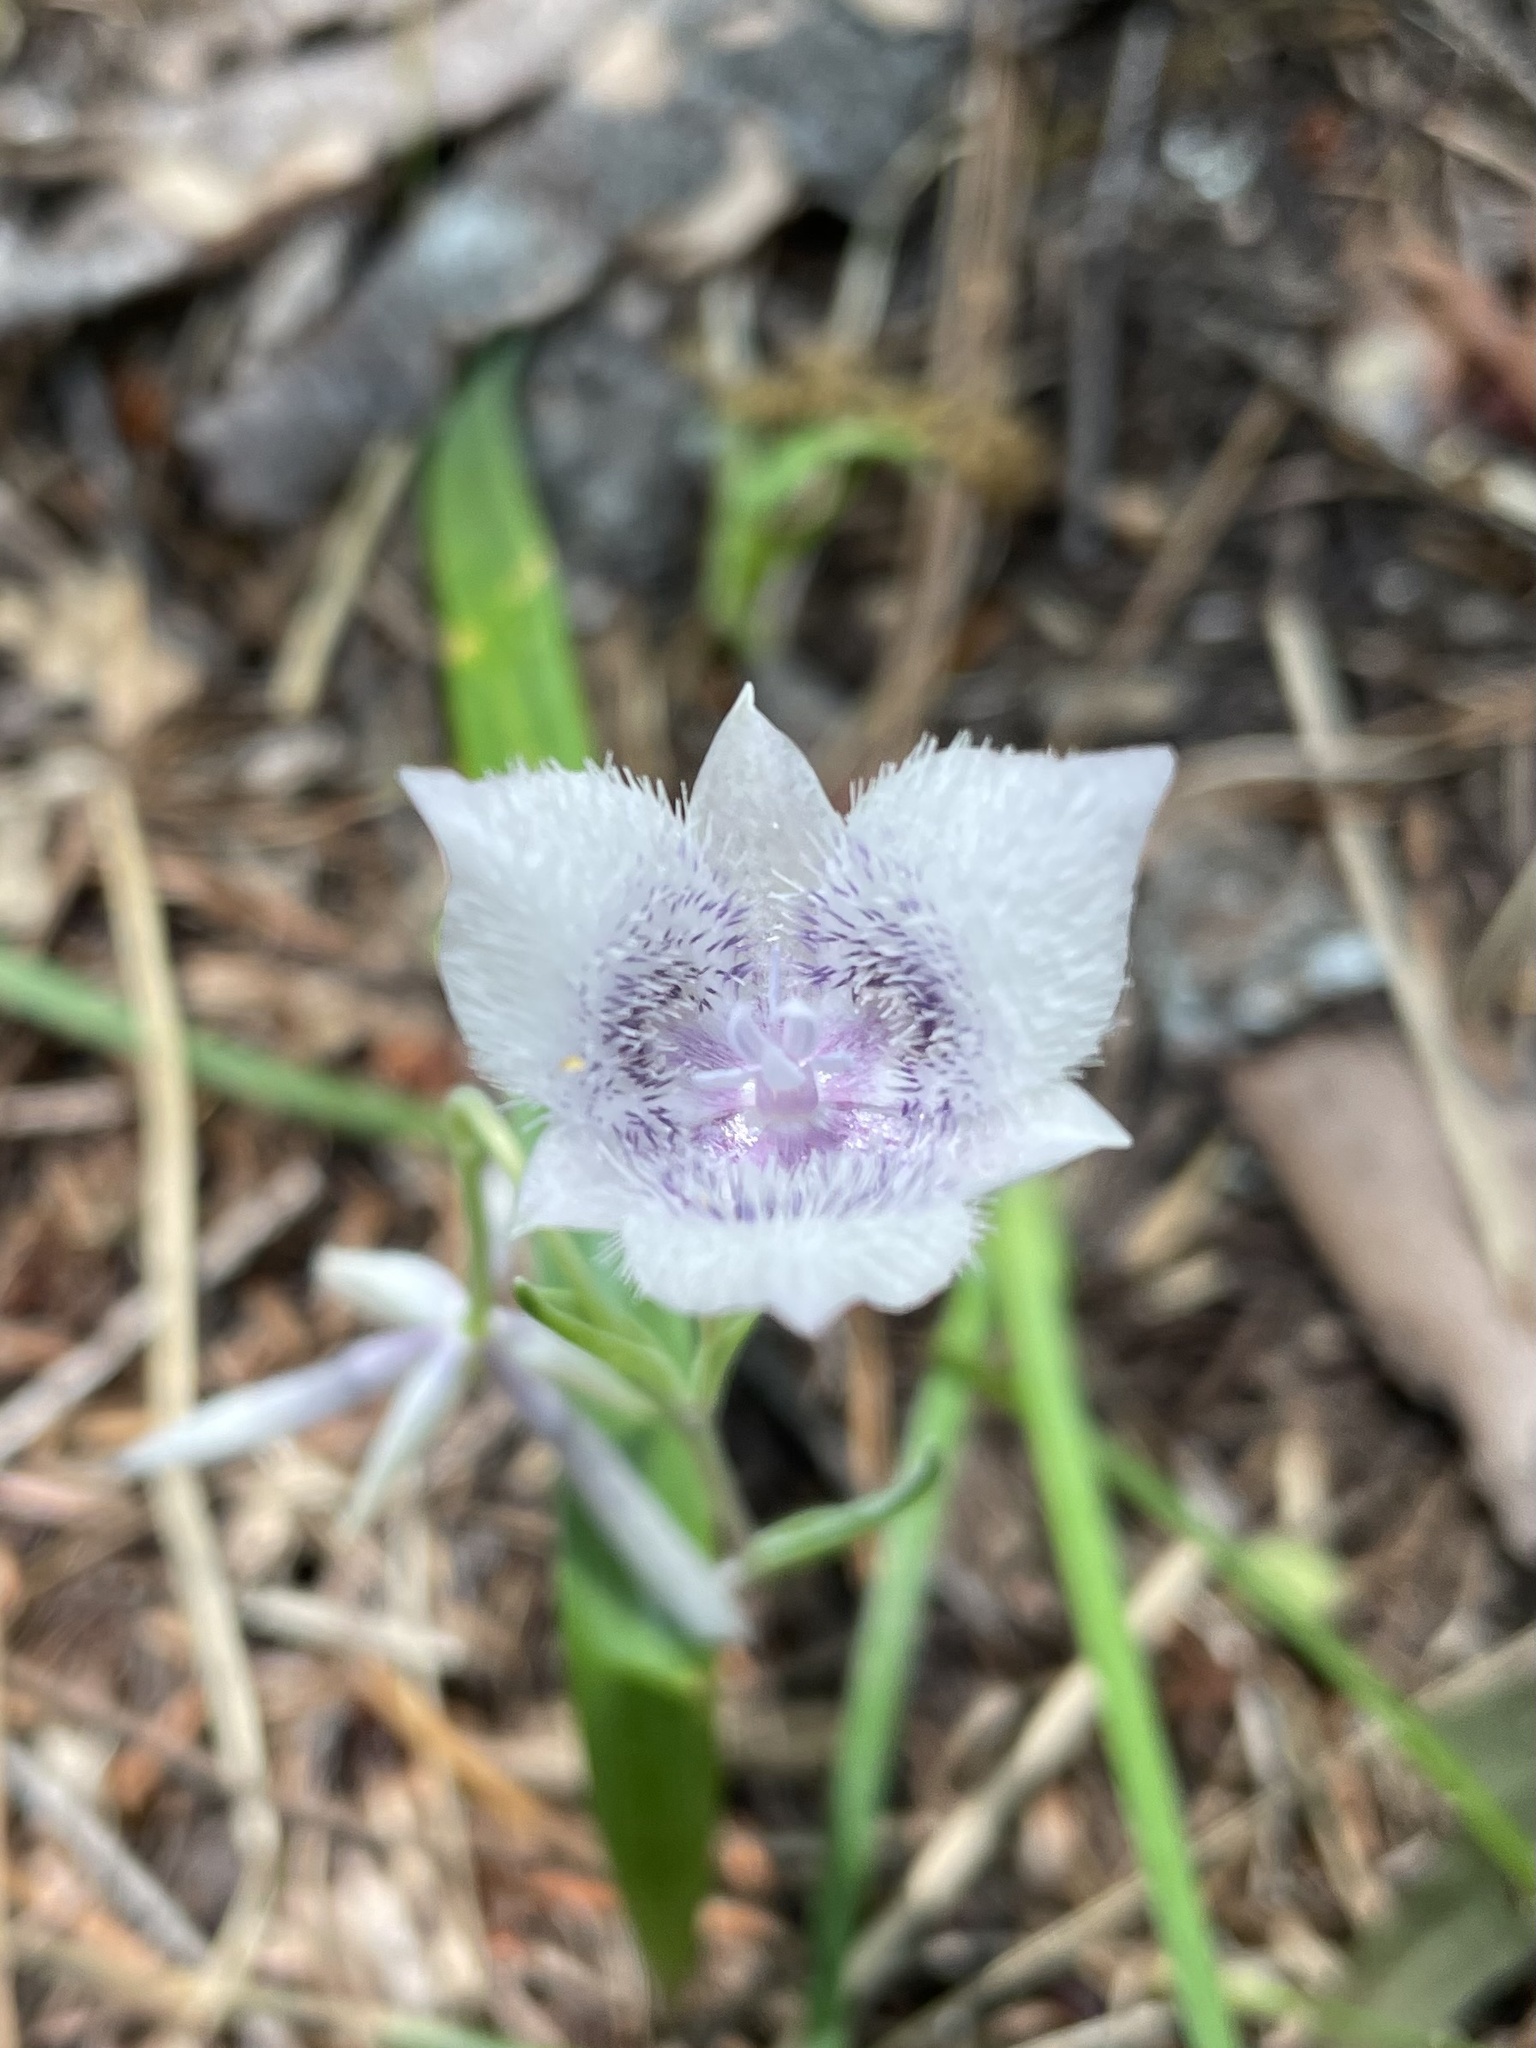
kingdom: Plantae
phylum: Tracheophyta
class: Liliopsida
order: Liliales
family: Liliaceae
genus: Calochortus
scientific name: Calochortus tolmiei
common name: Pussy-ears
